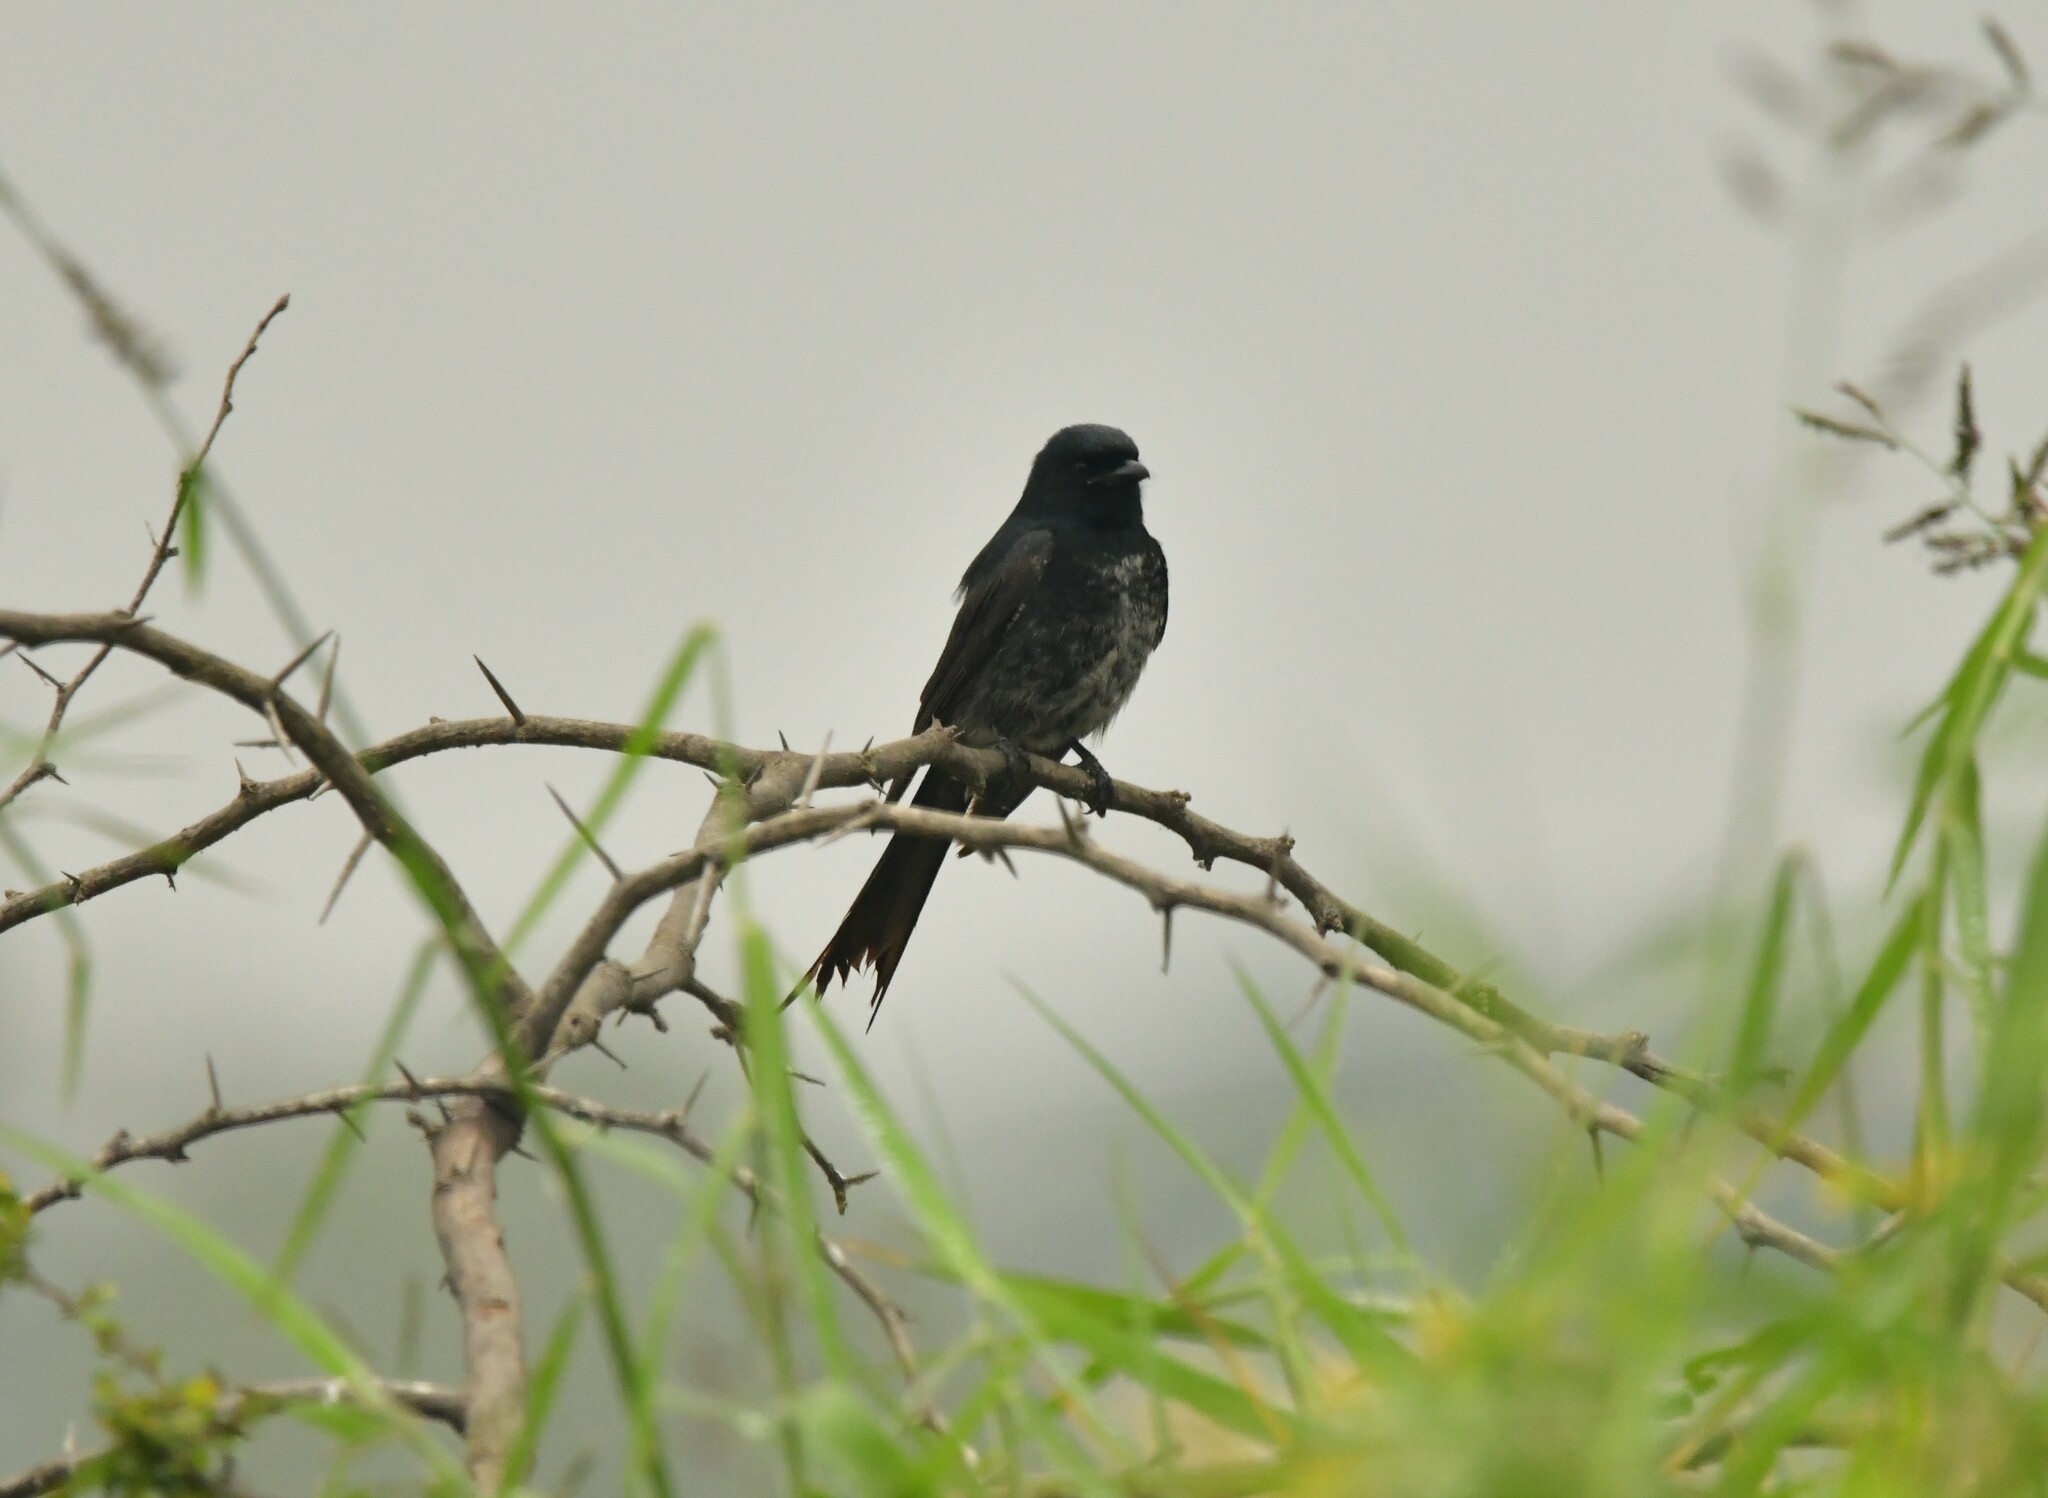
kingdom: Animalia
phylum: Chordata
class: Aves
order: Passeriformes
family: Dicruridae
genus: Dicrurus
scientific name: Dicrurus macrocercus
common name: Black drongo
